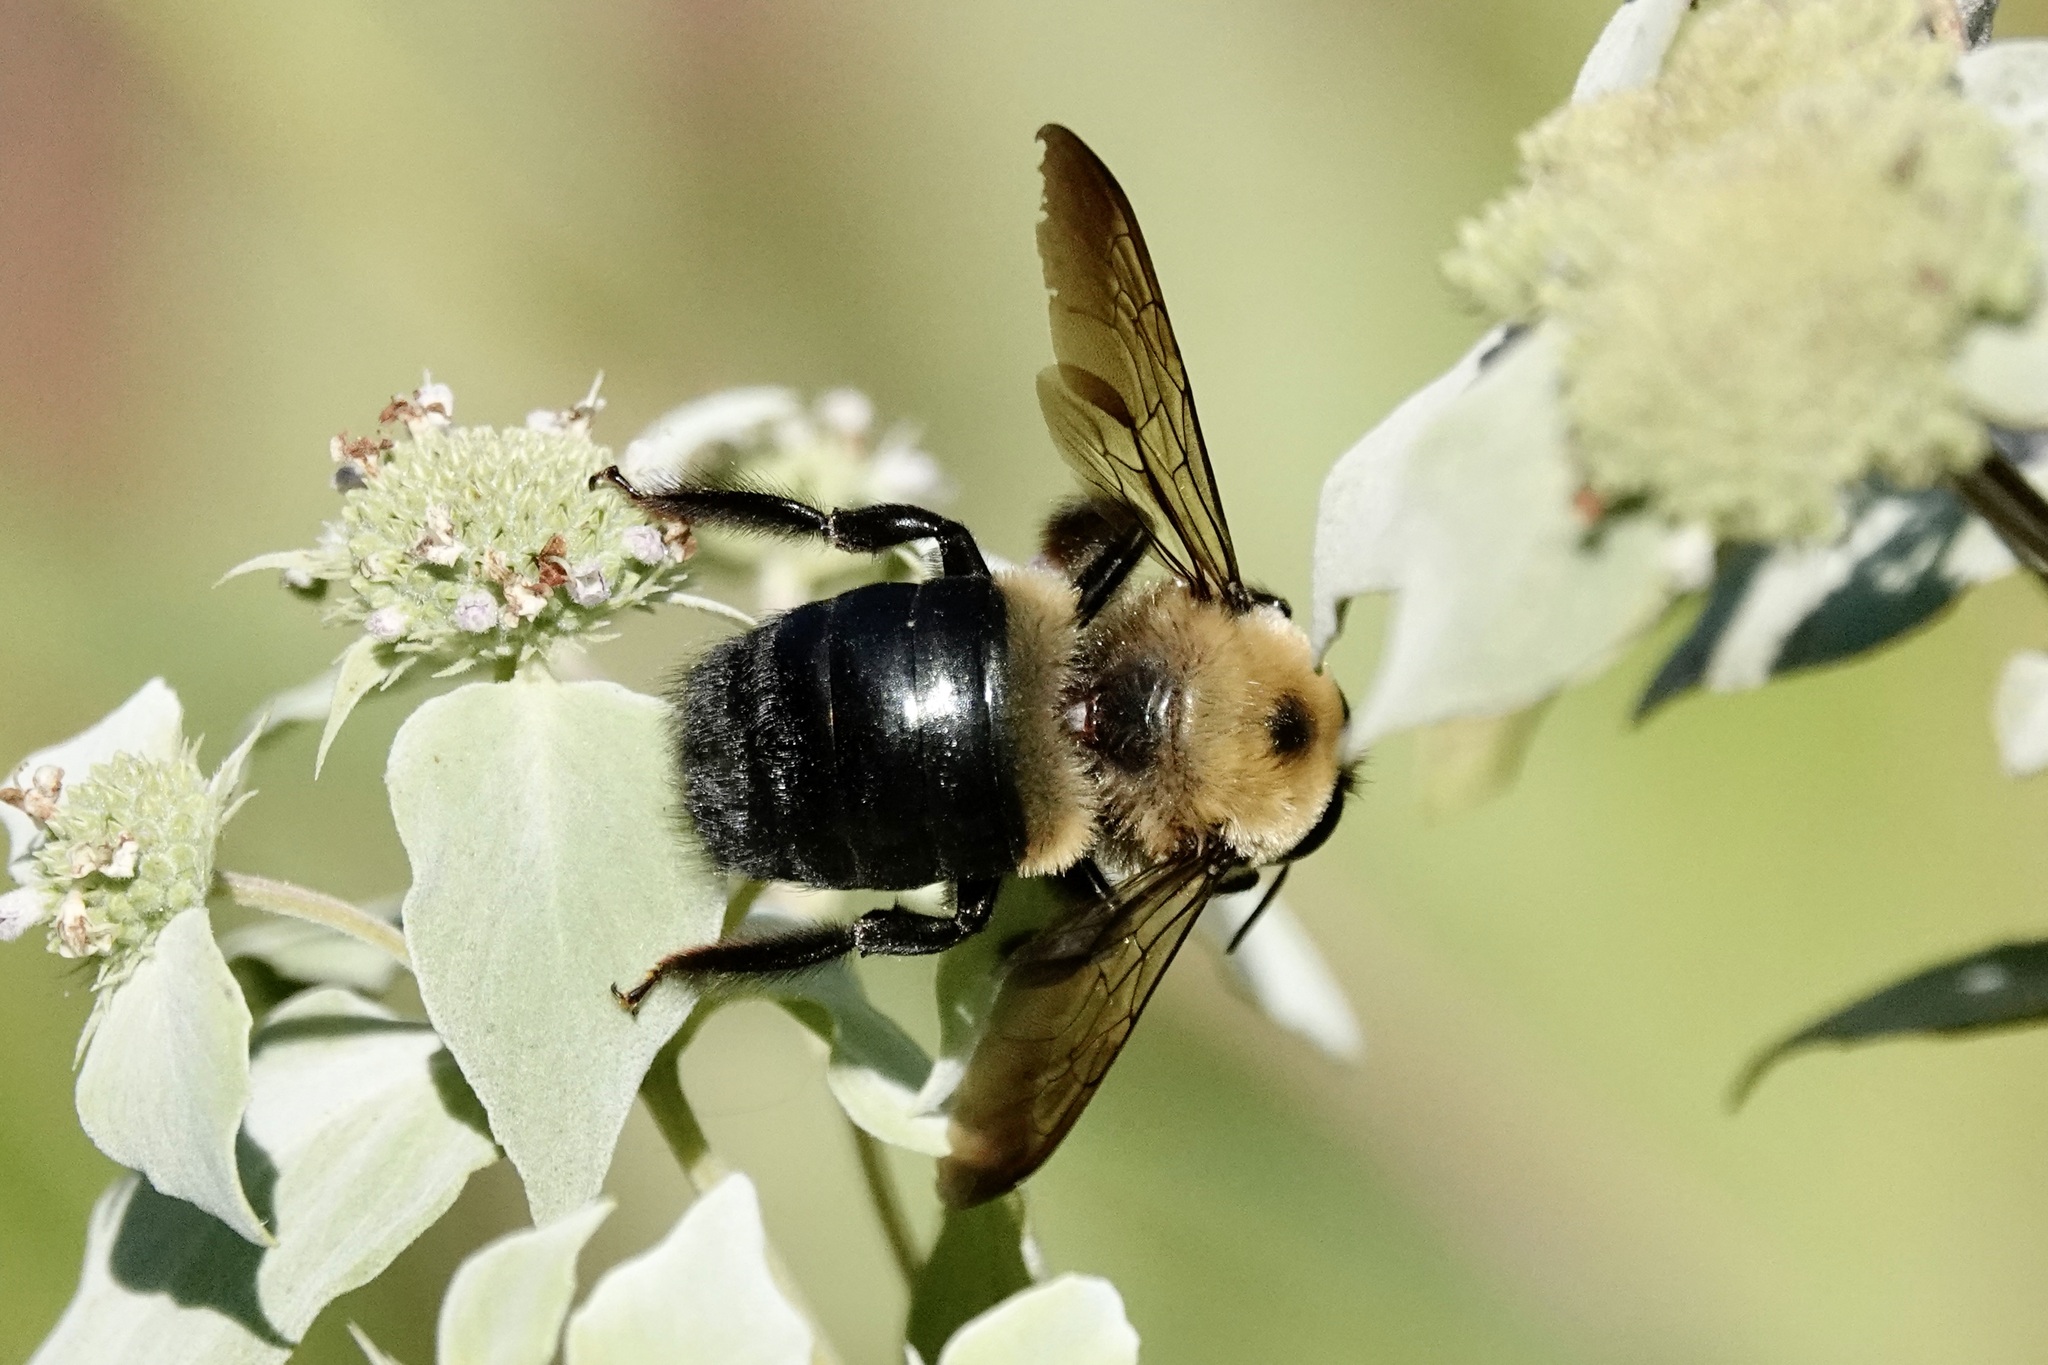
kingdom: Animalia
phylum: Arthropoda
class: Insecta
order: Hymenoptera
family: Apidae
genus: Xylocopa
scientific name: Xylocopa virginica
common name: Carpenter bee
